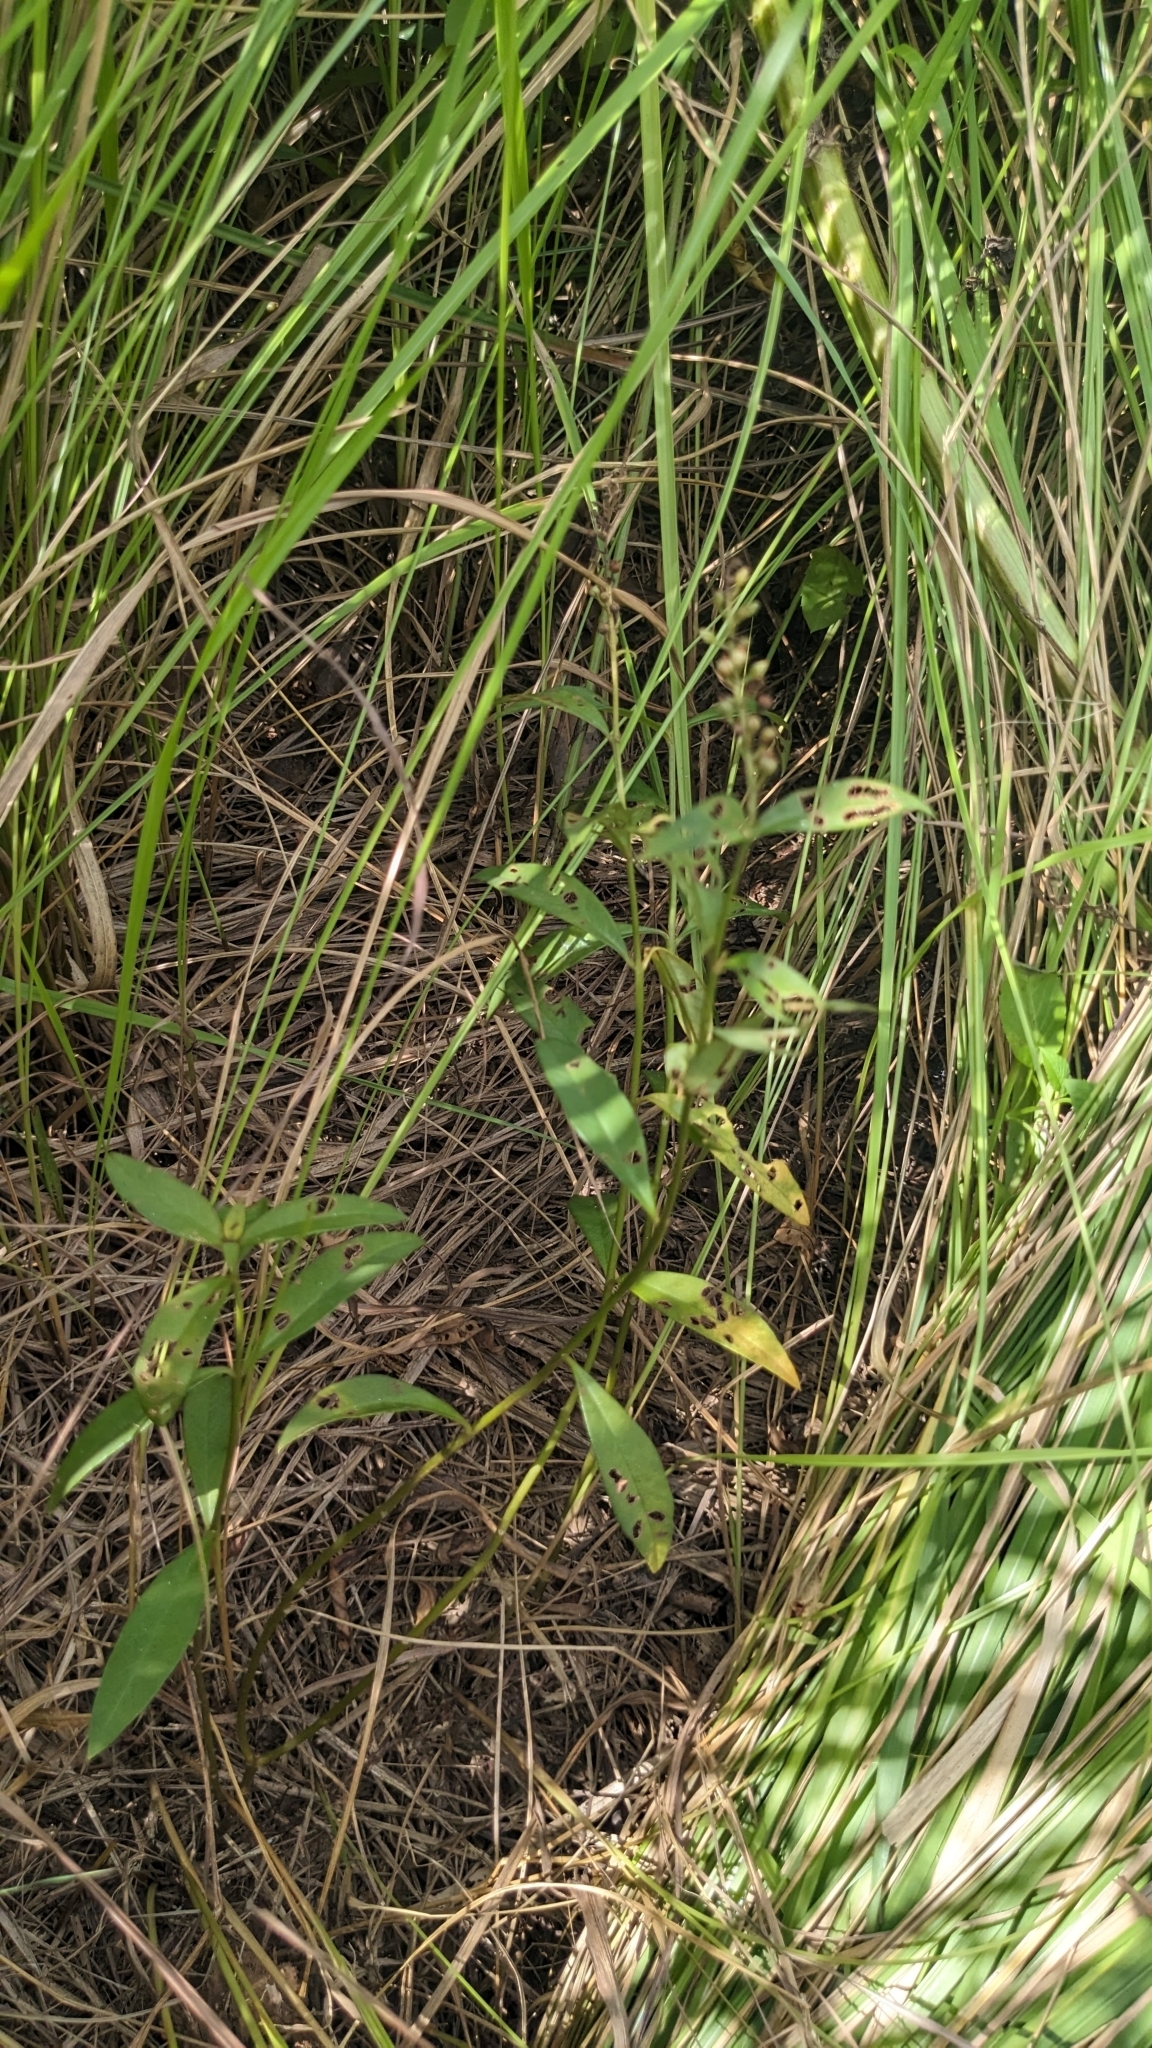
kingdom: Plantae
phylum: Tracheophyta
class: Magnoliopsida
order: Ericales
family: Primulaceae
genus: Lysimachia
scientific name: Lysimachia fortunei
